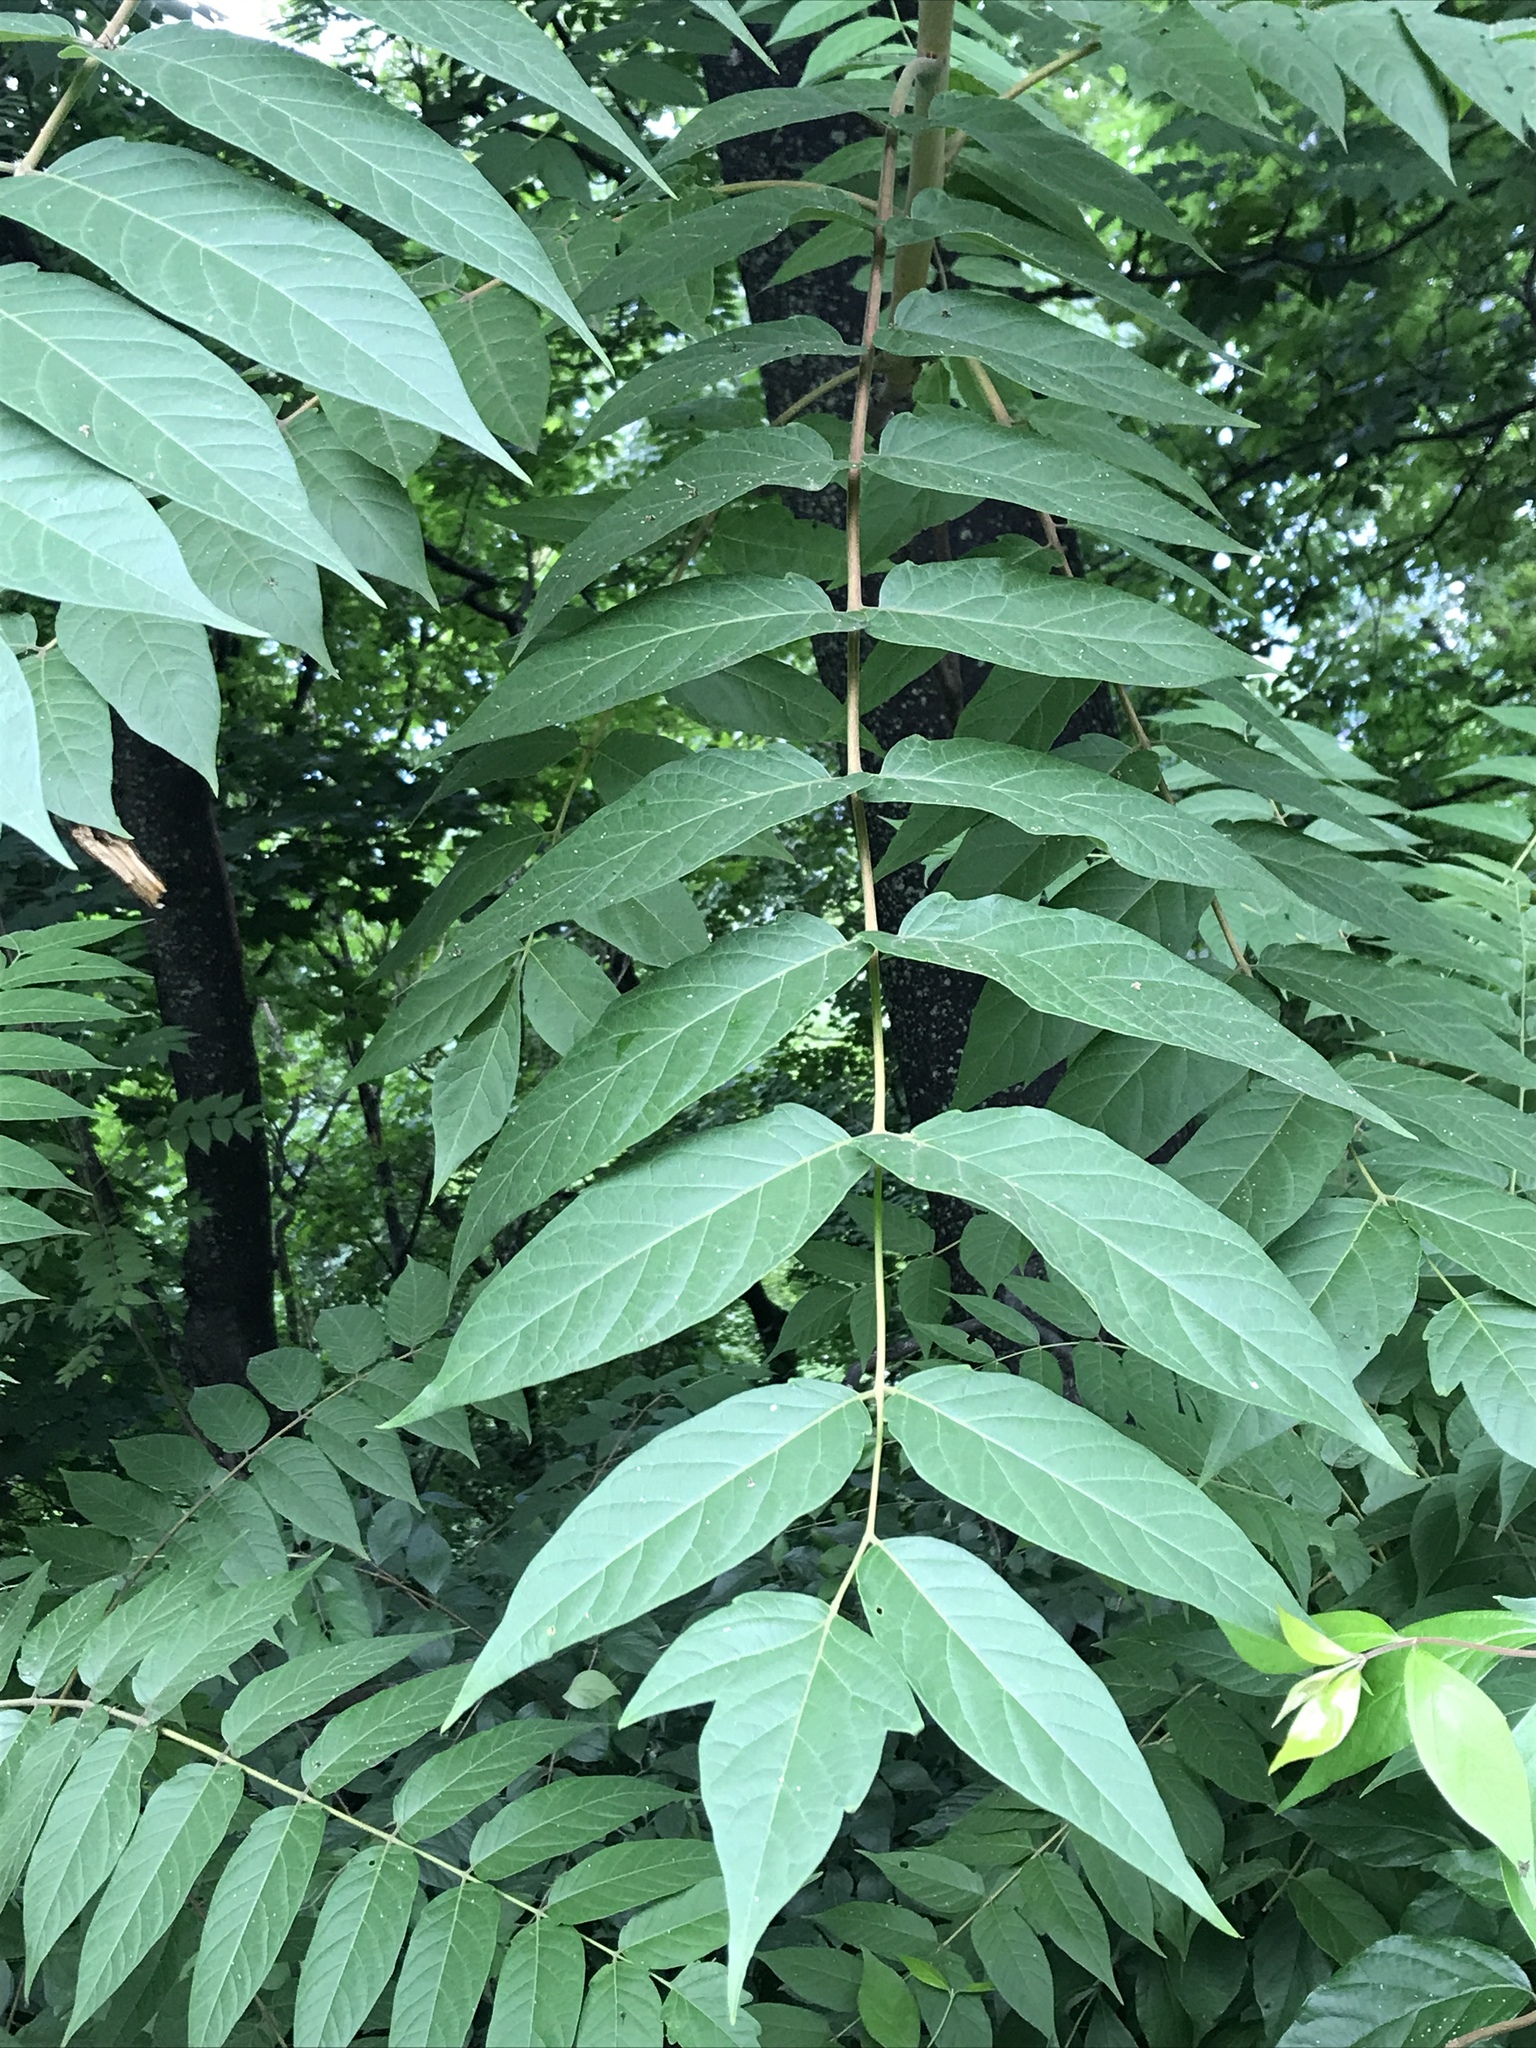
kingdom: Plantae
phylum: Tracheophyta
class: Magnoliopsida
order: Sapindales
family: Simaroubaceae
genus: Ailanthus
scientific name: Ailanthus altissima
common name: Tree-of-heaven
